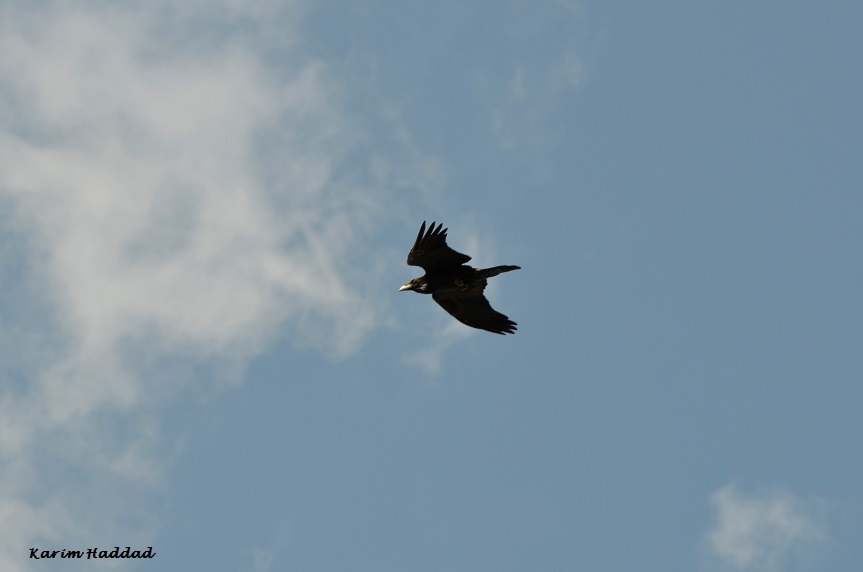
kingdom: Animalia
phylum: Chordata
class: Aves
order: Passeriformes
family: Corvidae
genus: Corvus
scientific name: Corvus corax
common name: Common raven
